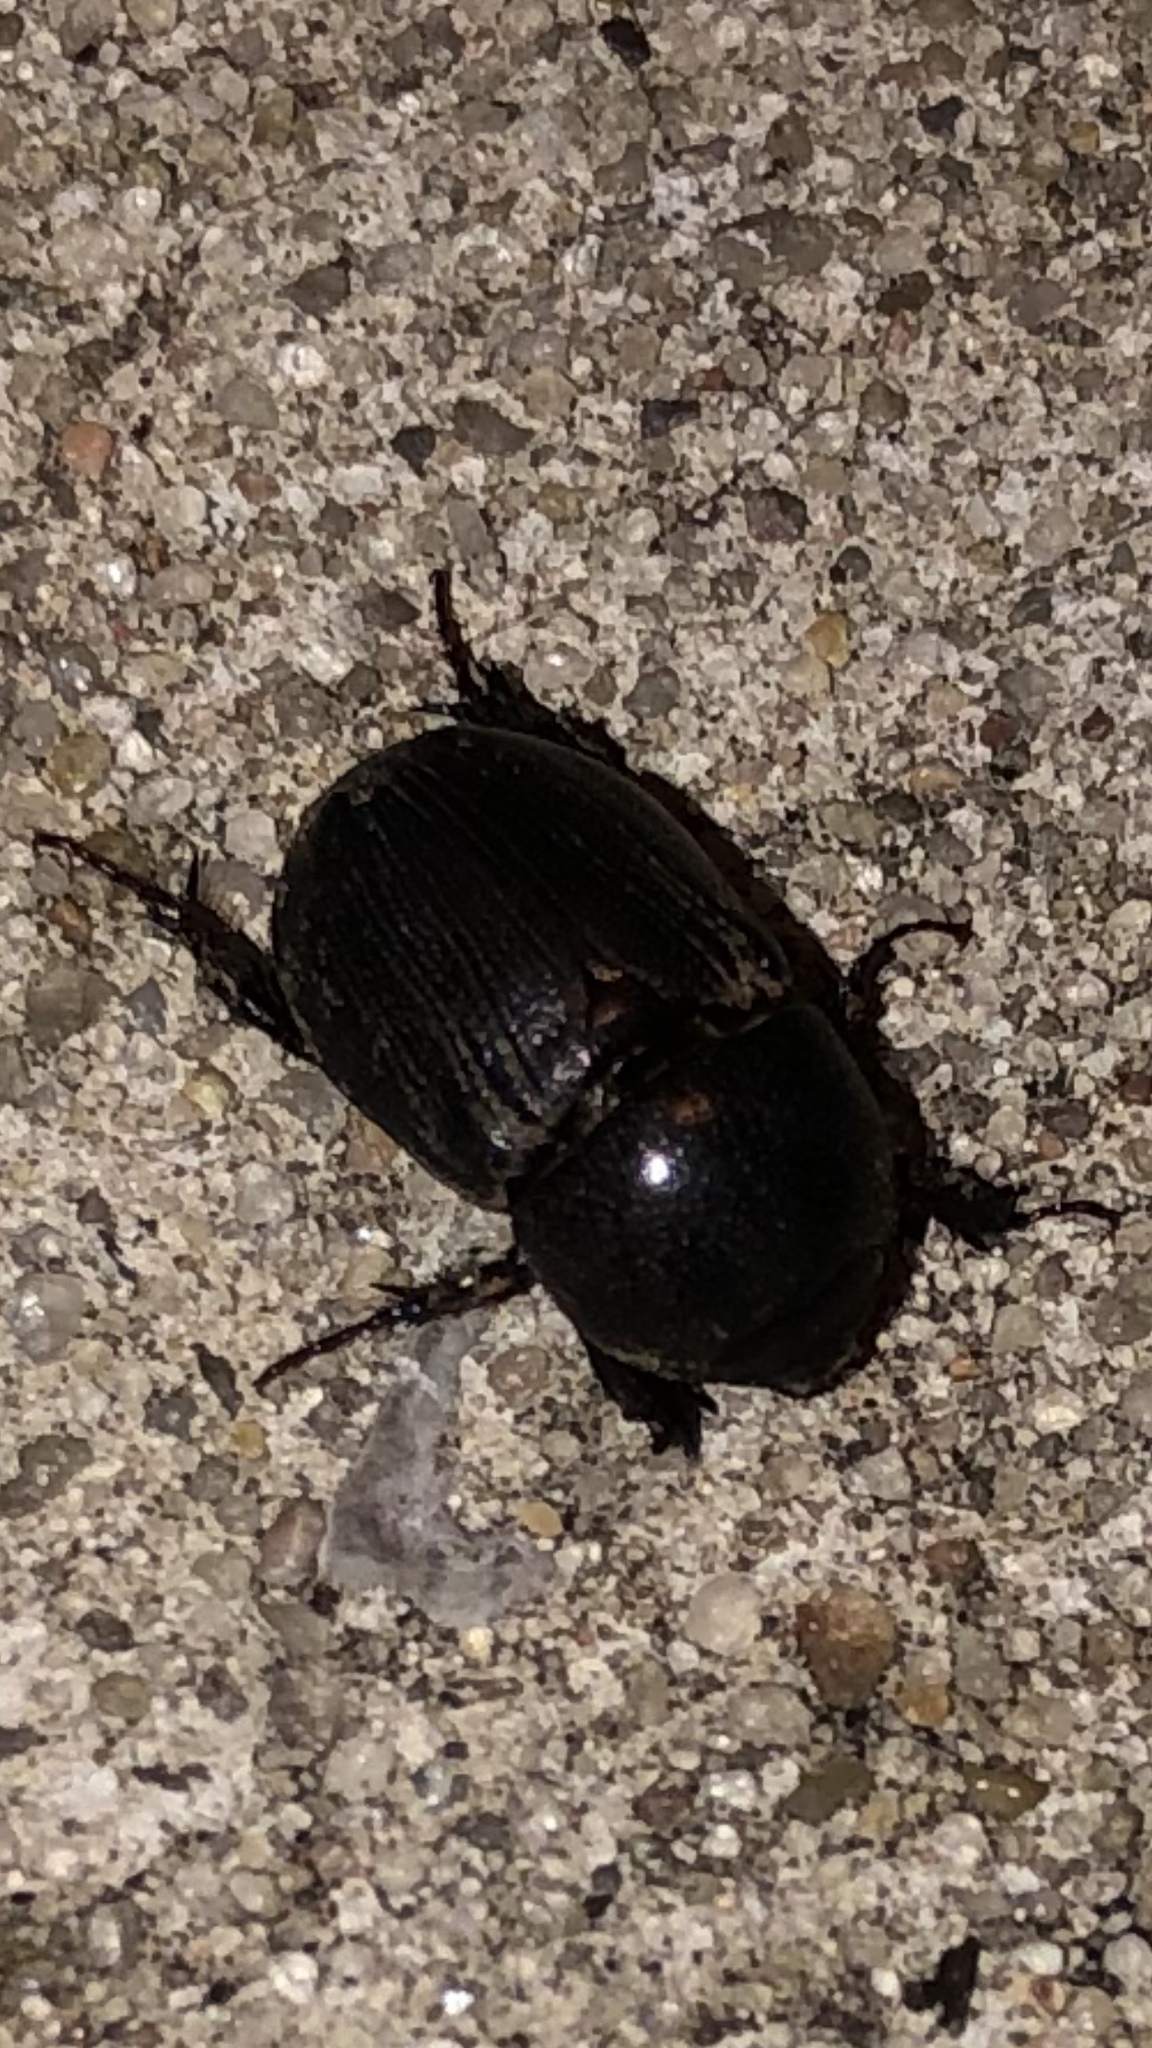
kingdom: Animalia
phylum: Arthropoda
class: Insecta
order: Coleoptera
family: Scarabaeidae
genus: Euetheola
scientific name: Euetheola humilis
